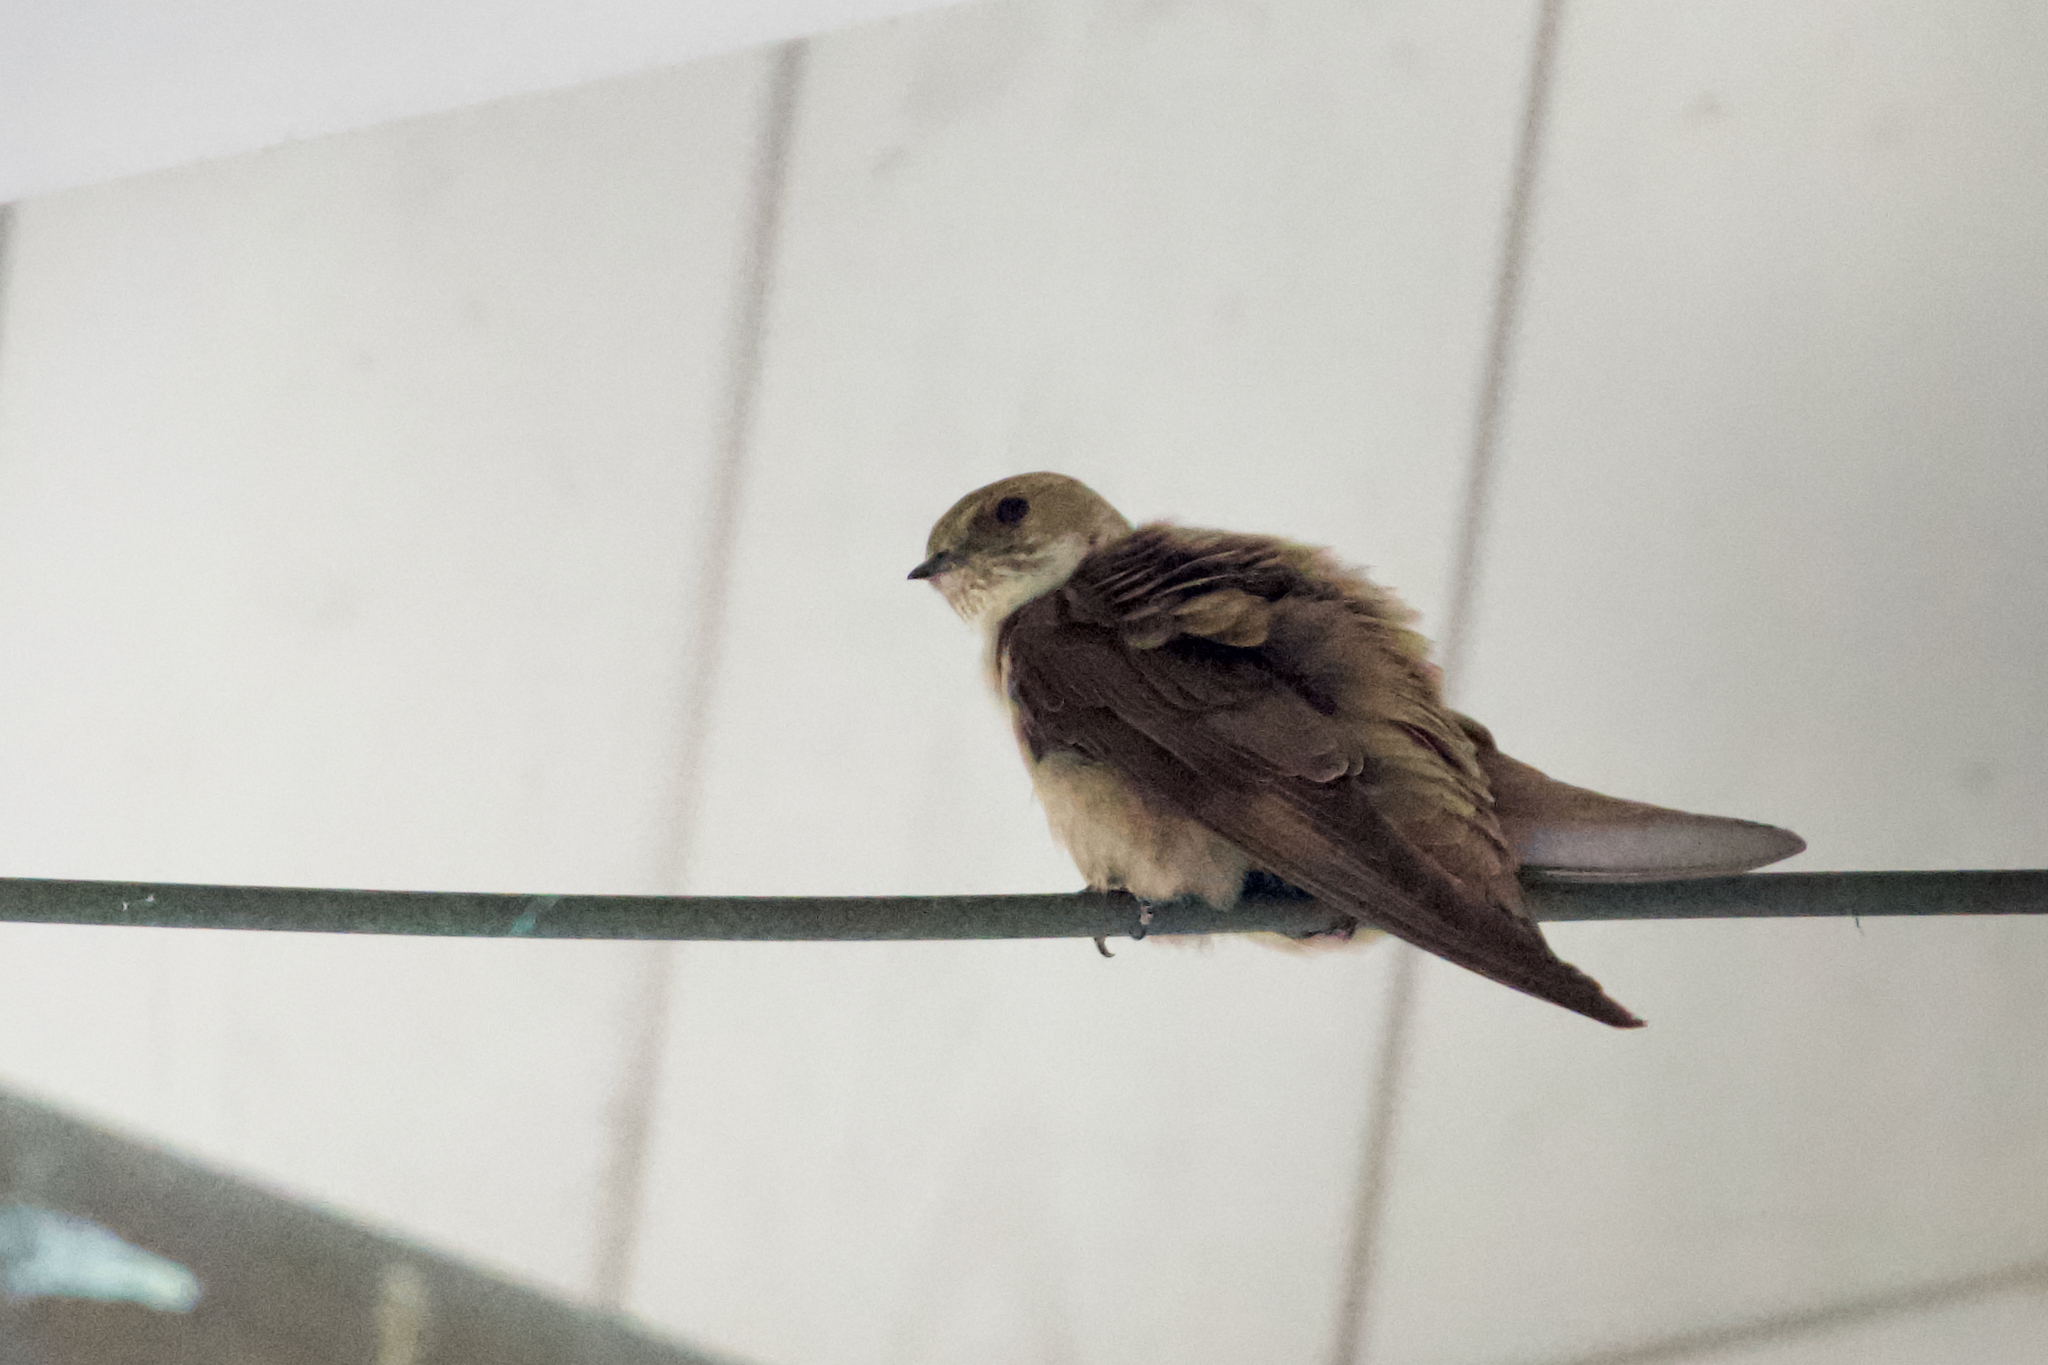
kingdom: Animalia
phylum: Chordata
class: Aves
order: Passeriformes
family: Hirundinidae
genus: Ptyonoprogne
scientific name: Ptyonoprogne rupestris
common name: Eurasian crag martin
